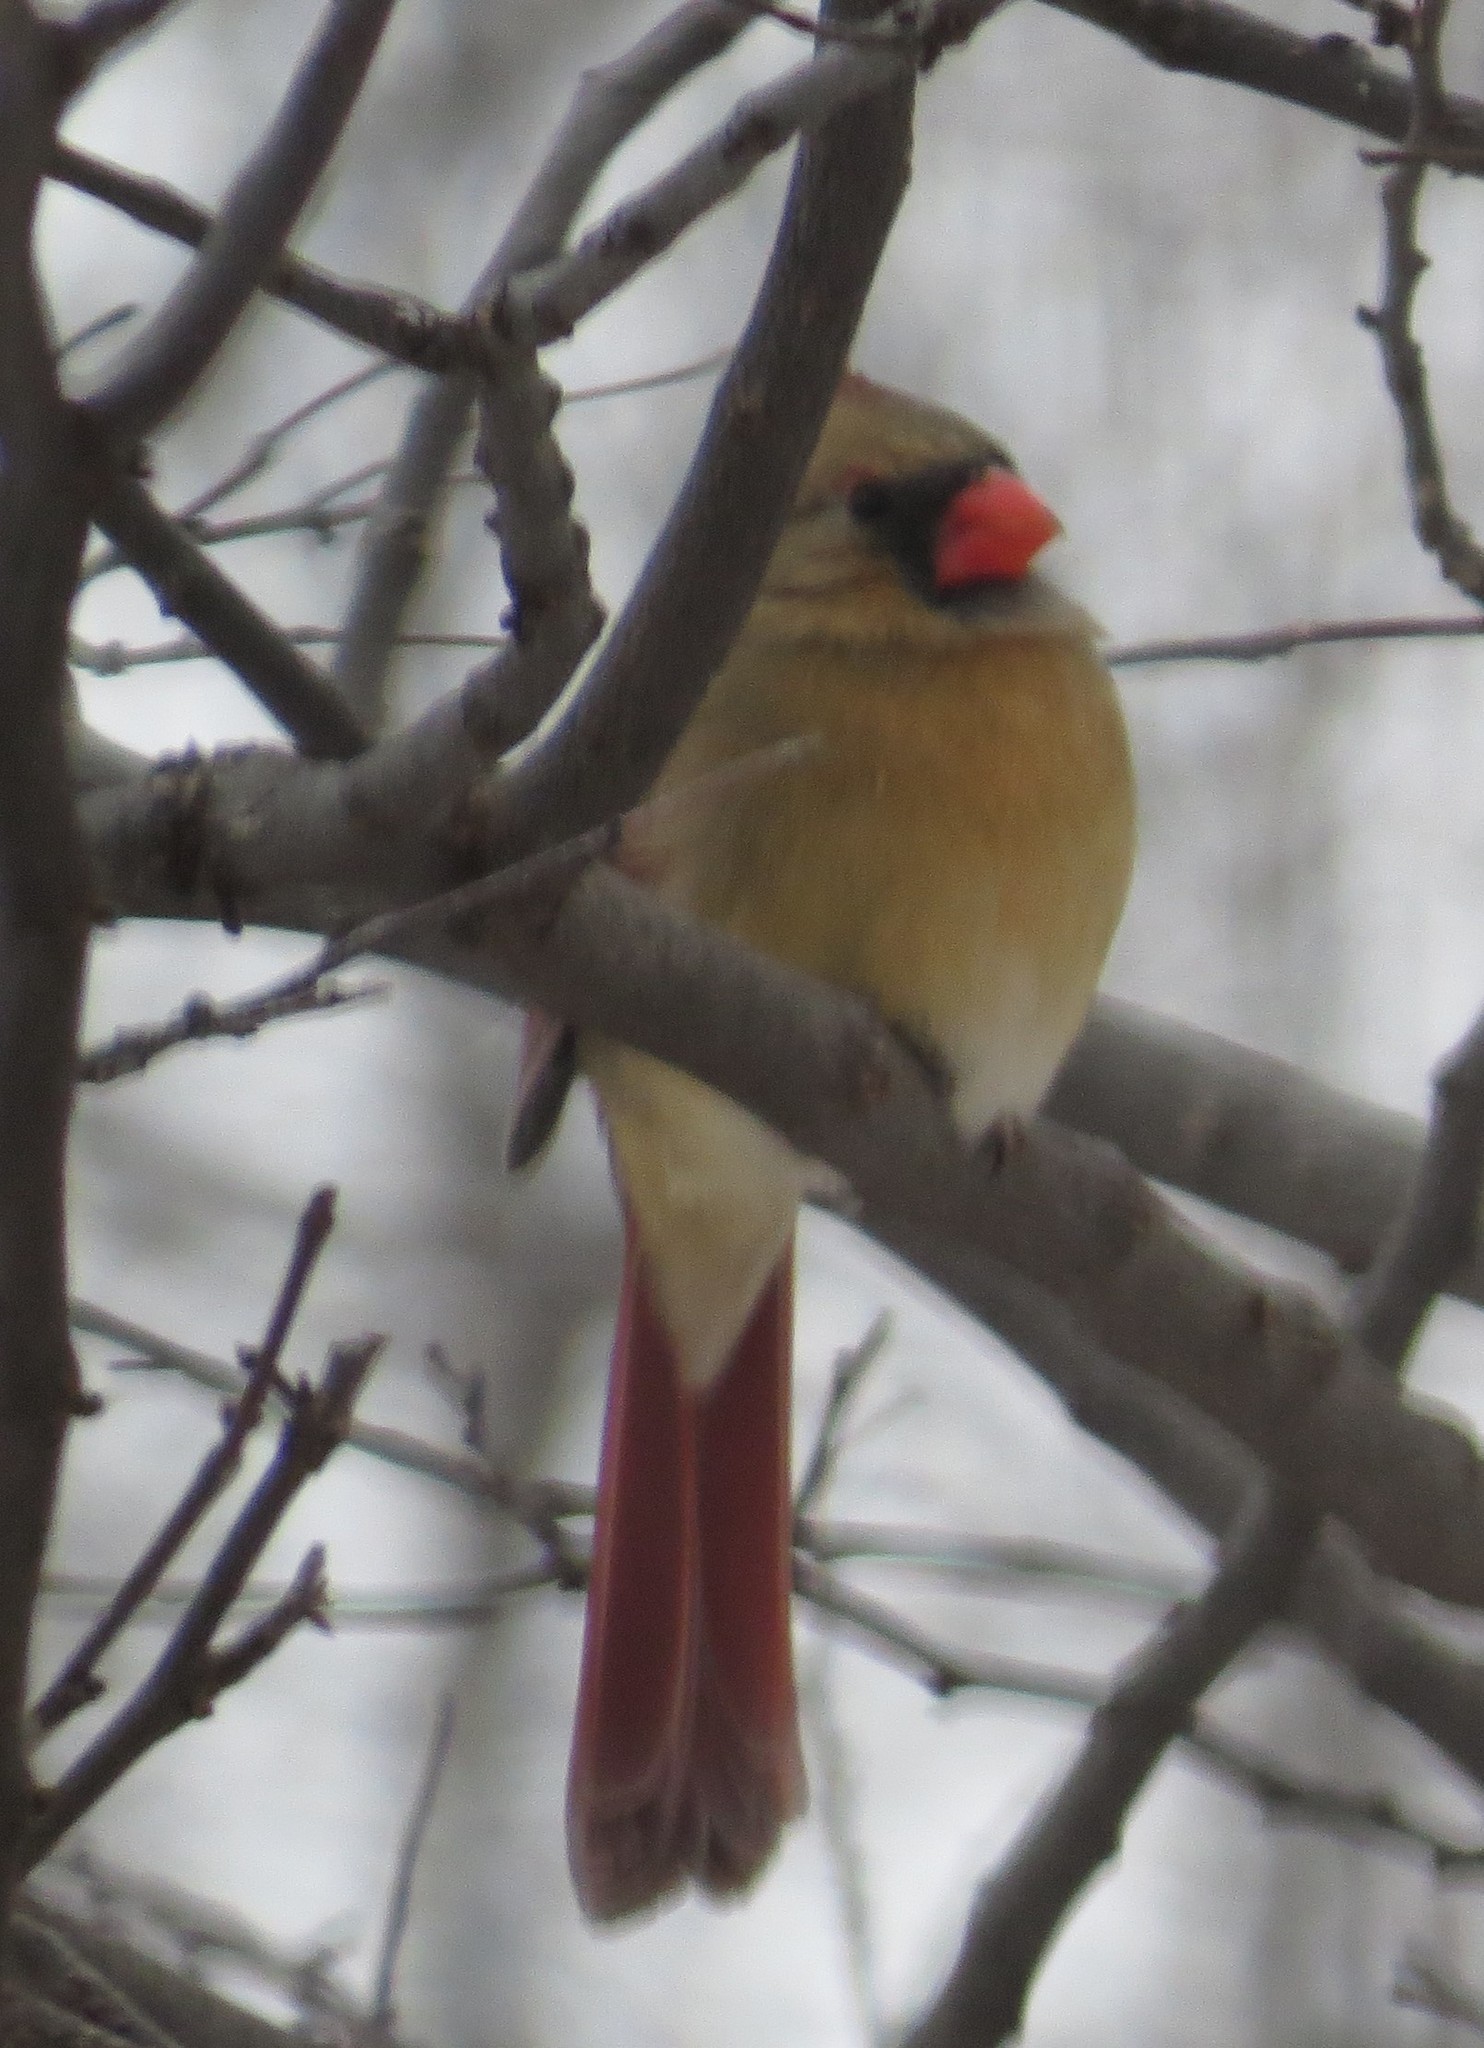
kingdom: Animalia
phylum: Chordata
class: Aves
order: Passeriformes
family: Cardinalidae
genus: Cardinalis
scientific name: Cardinalis cardinalis
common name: Northern cardinal
